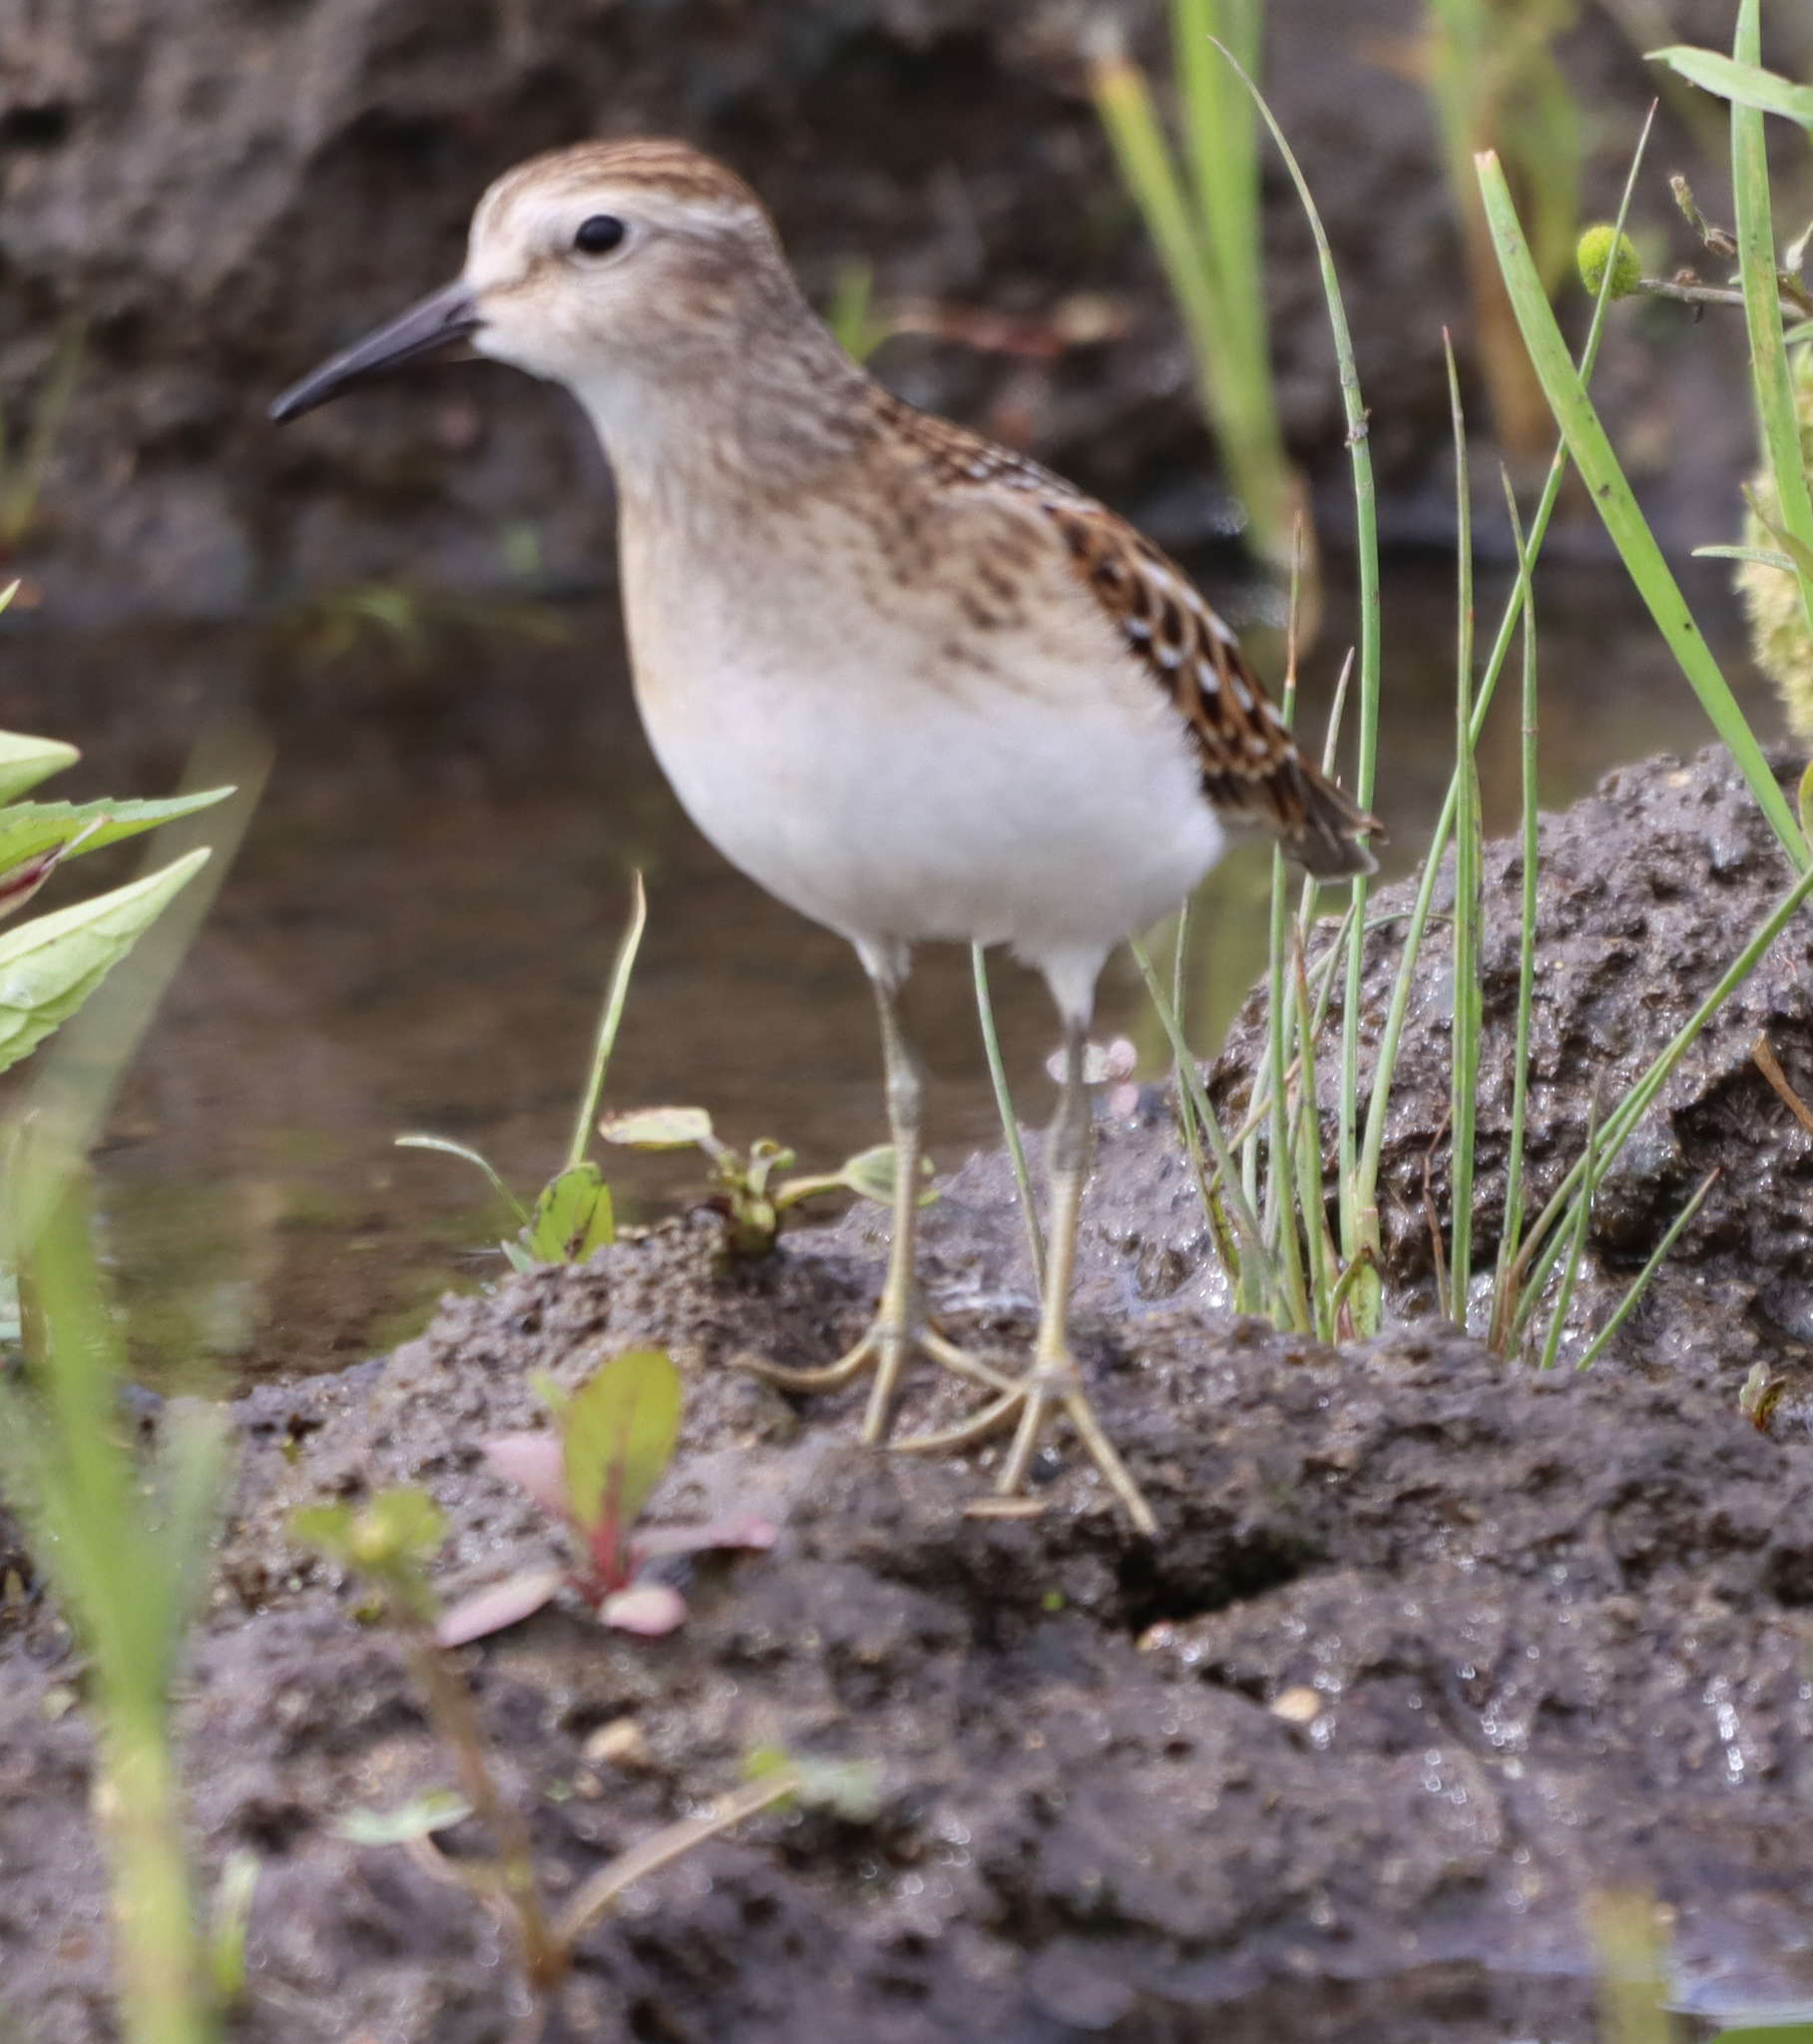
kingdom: Animalia
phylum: Chordata
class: Aves
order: Charadriiformes
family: Scolopacidae
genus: Calidris
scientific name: Calidris minutilla
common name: Least sandpiper
